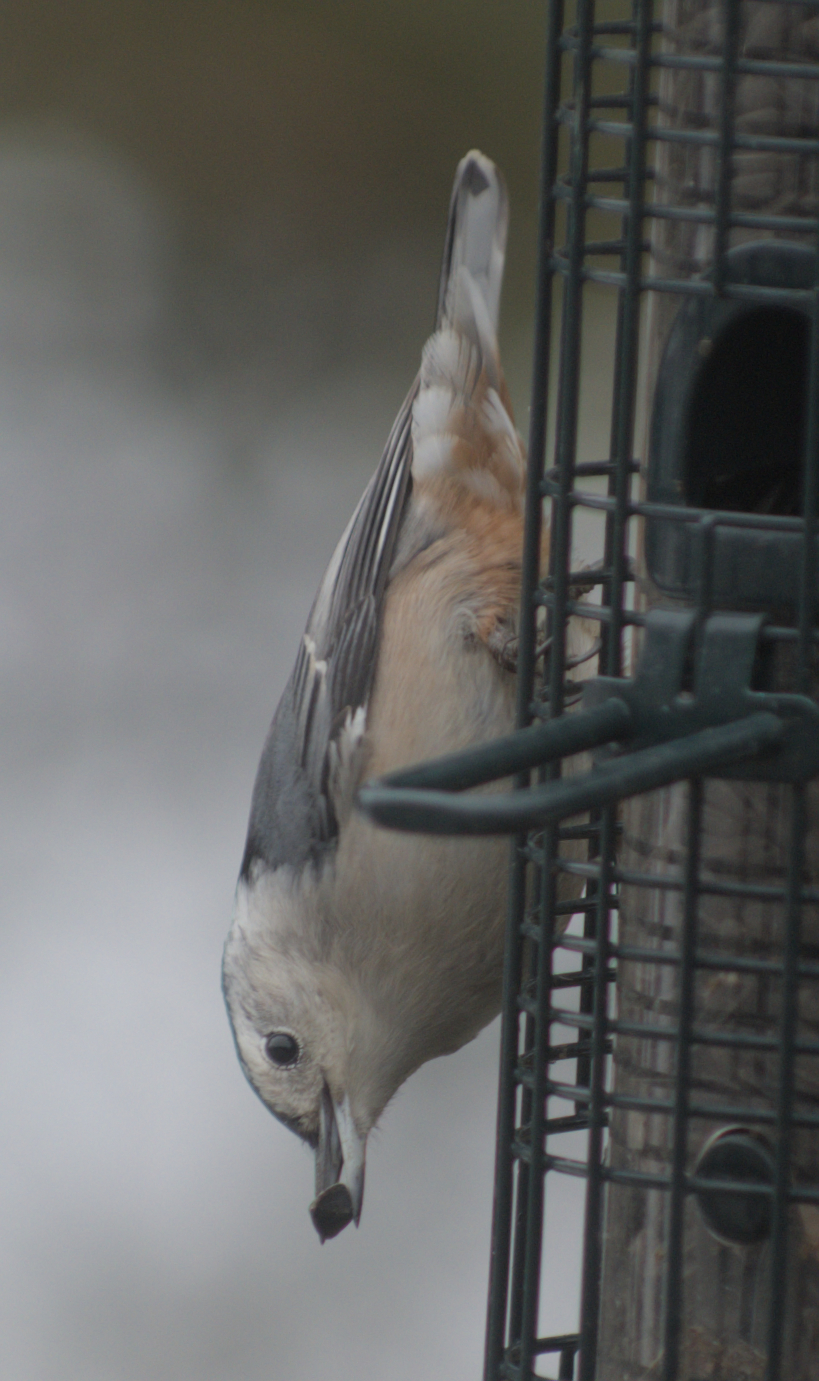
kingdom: Animalia
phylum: Chordata
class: Aves
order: Passeriformes
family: Sittidae
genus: Sitta
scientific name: Sitta carolinensis
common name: White-breasted nuthatch
